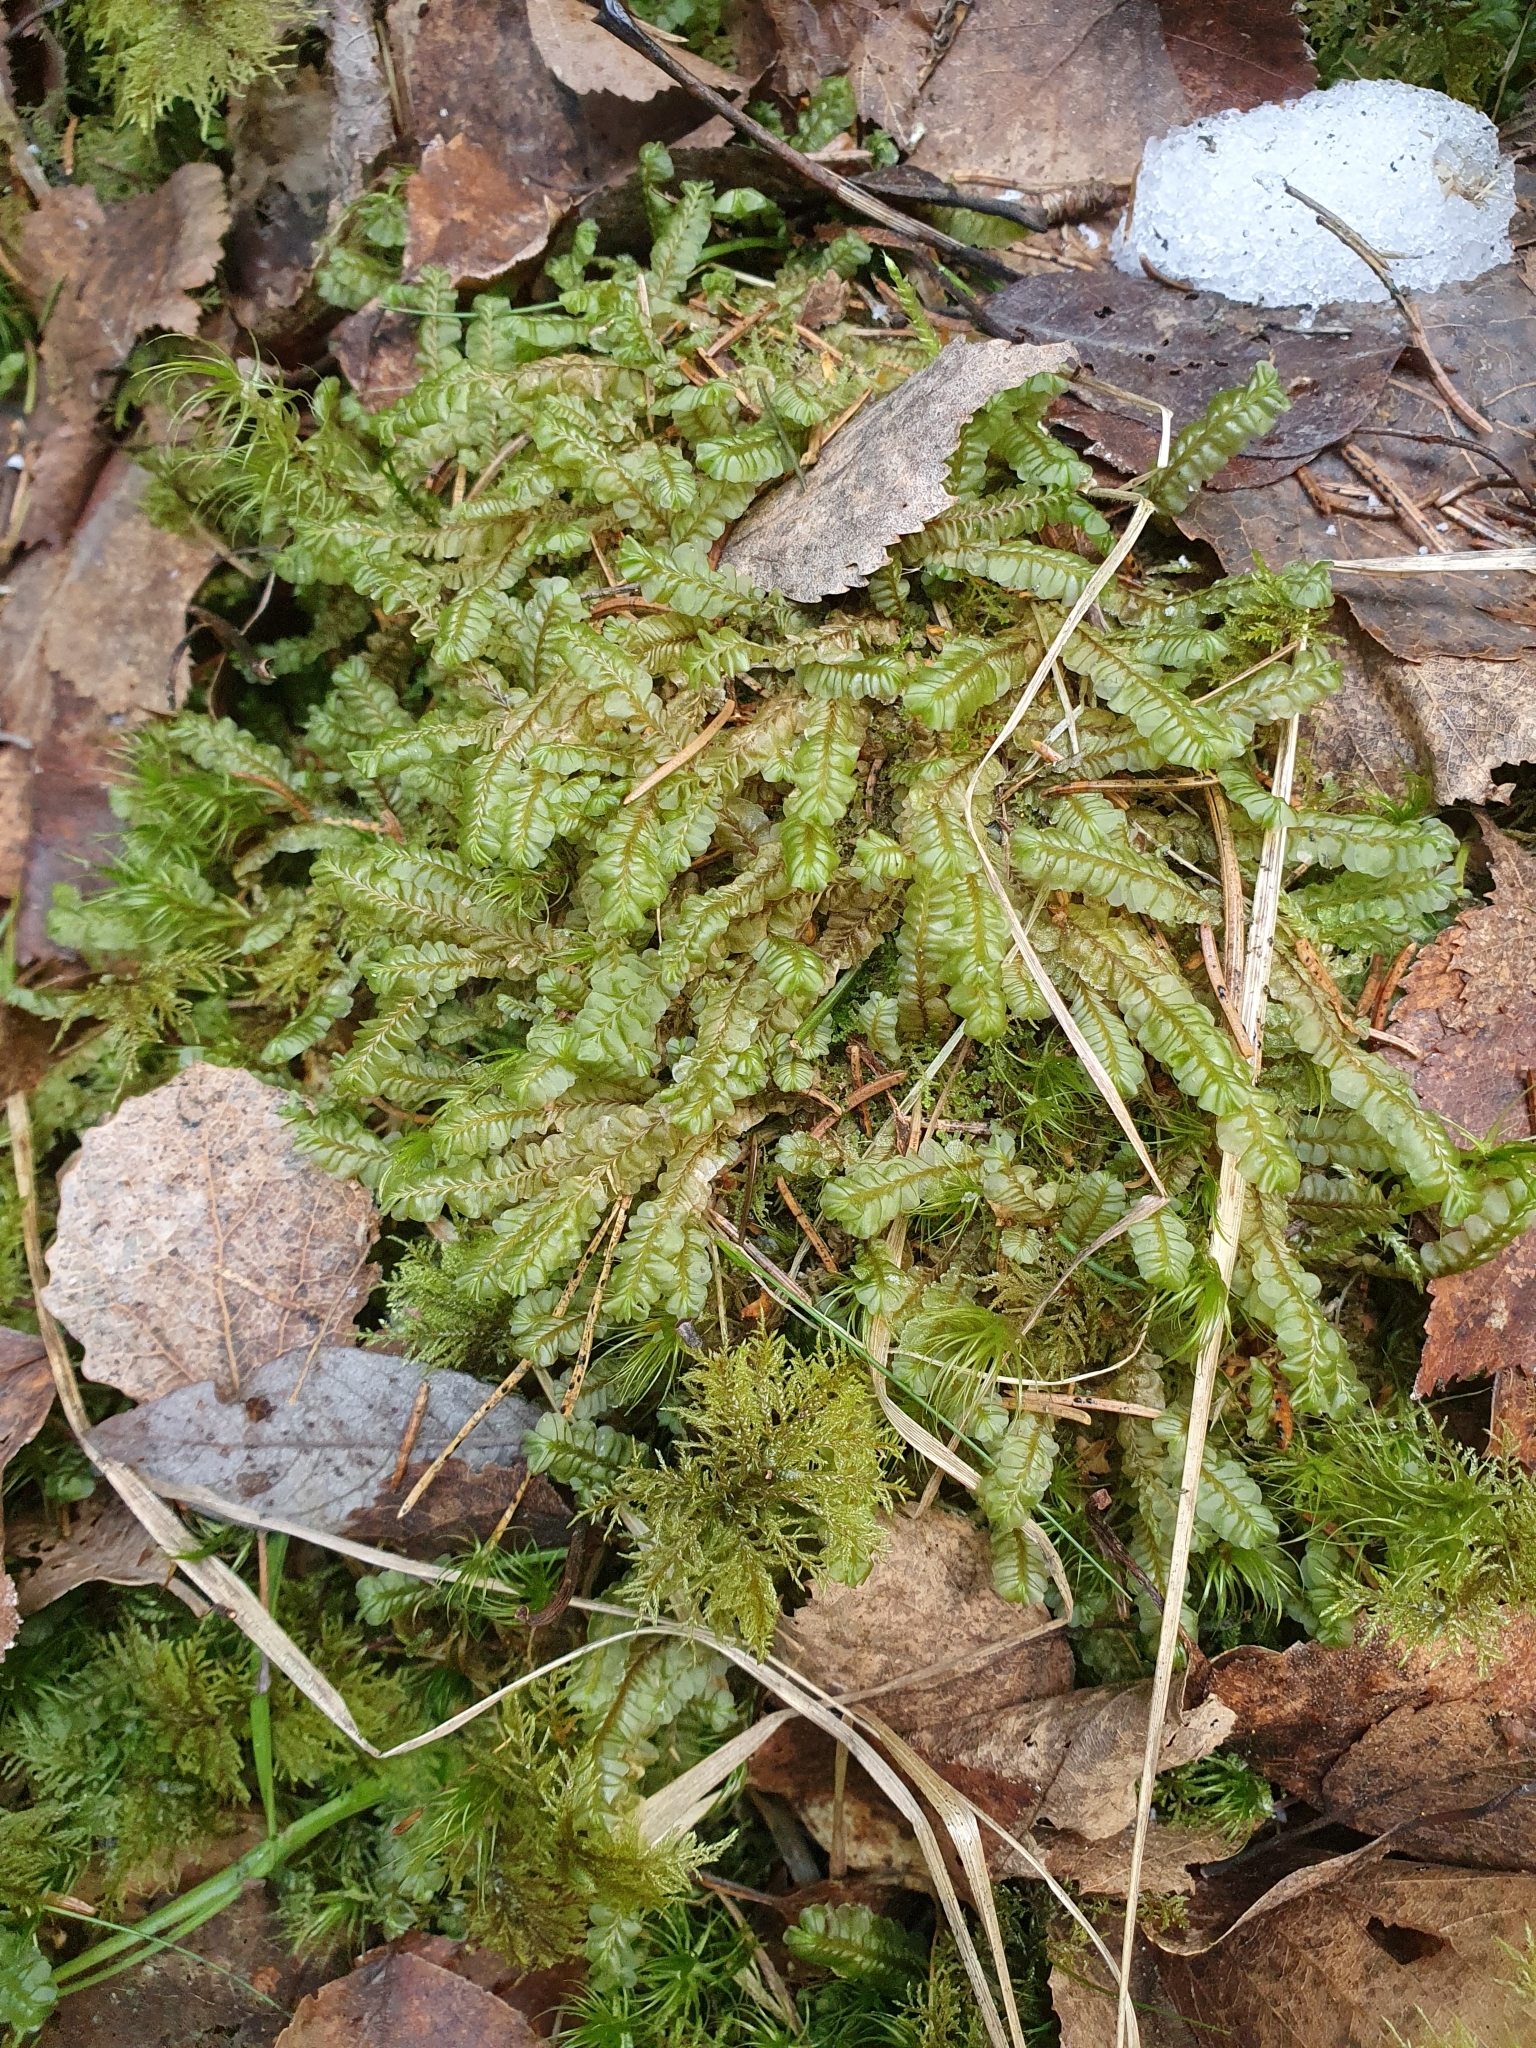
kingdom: Plantae
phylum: Marchantiophyta
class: Jungermanniopsida
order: Jungermanniales
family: Plagiochilaceae
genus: Plagiochila
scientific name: Plagiochila asplenioides
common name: Greater featherwort
